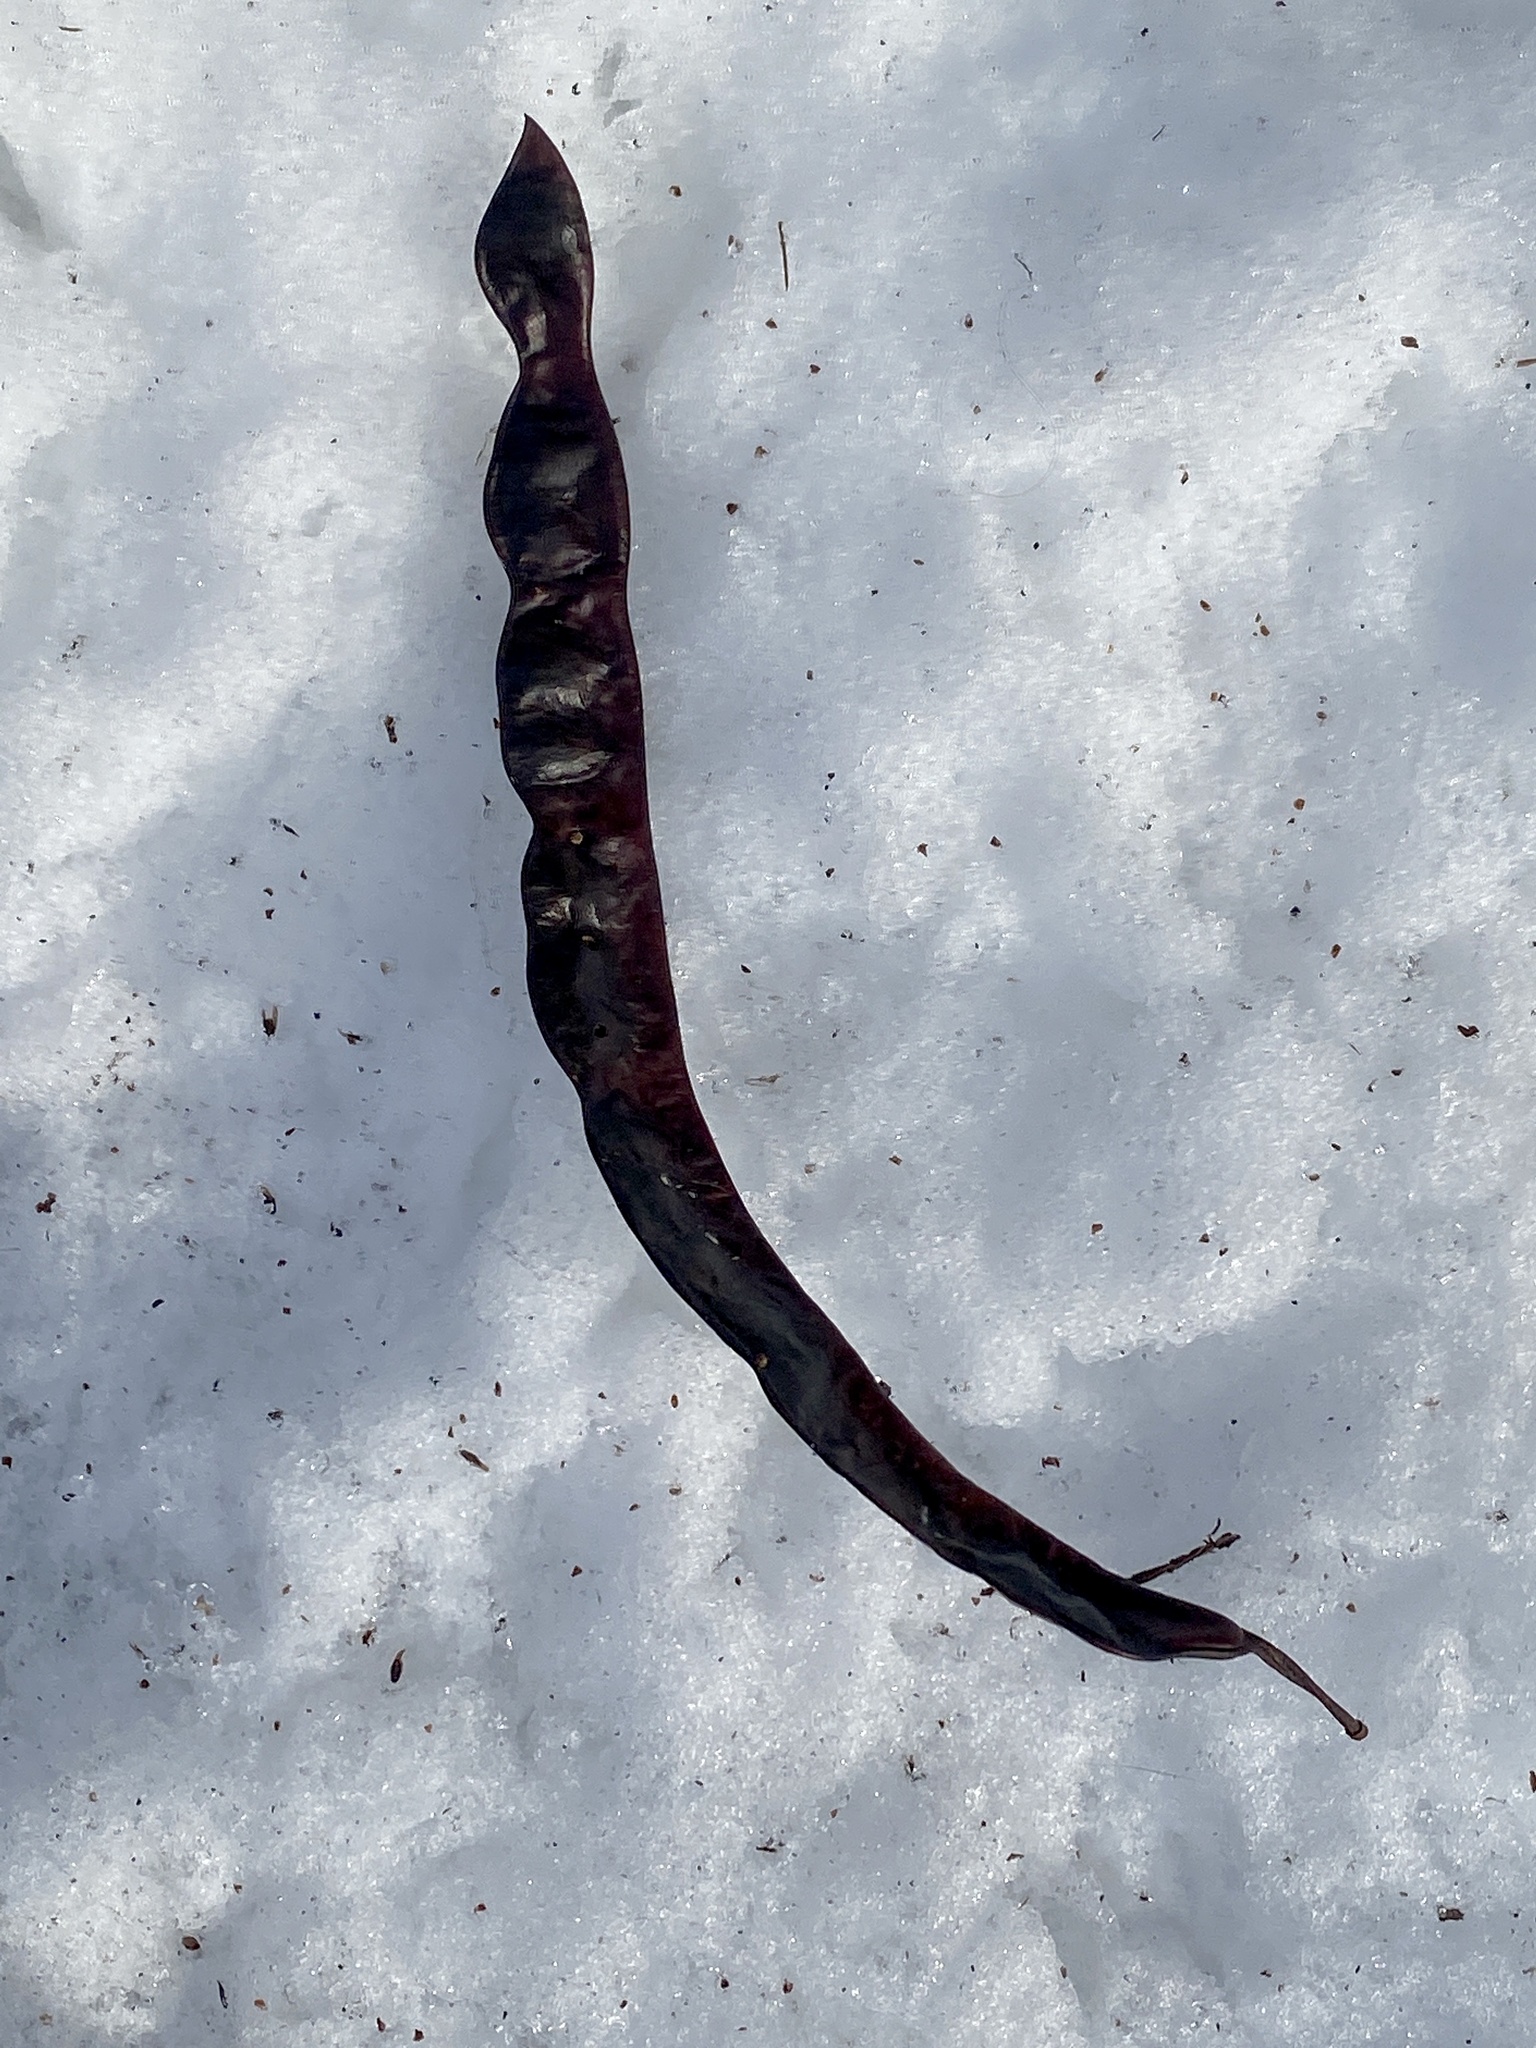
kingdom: Plantae
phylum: Tracheophyta
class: Magnoliopsida
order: Fabales
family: Fabaceae
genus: Gleditsia
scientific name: Gleditsia triacanthos
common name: Common honeylocust
